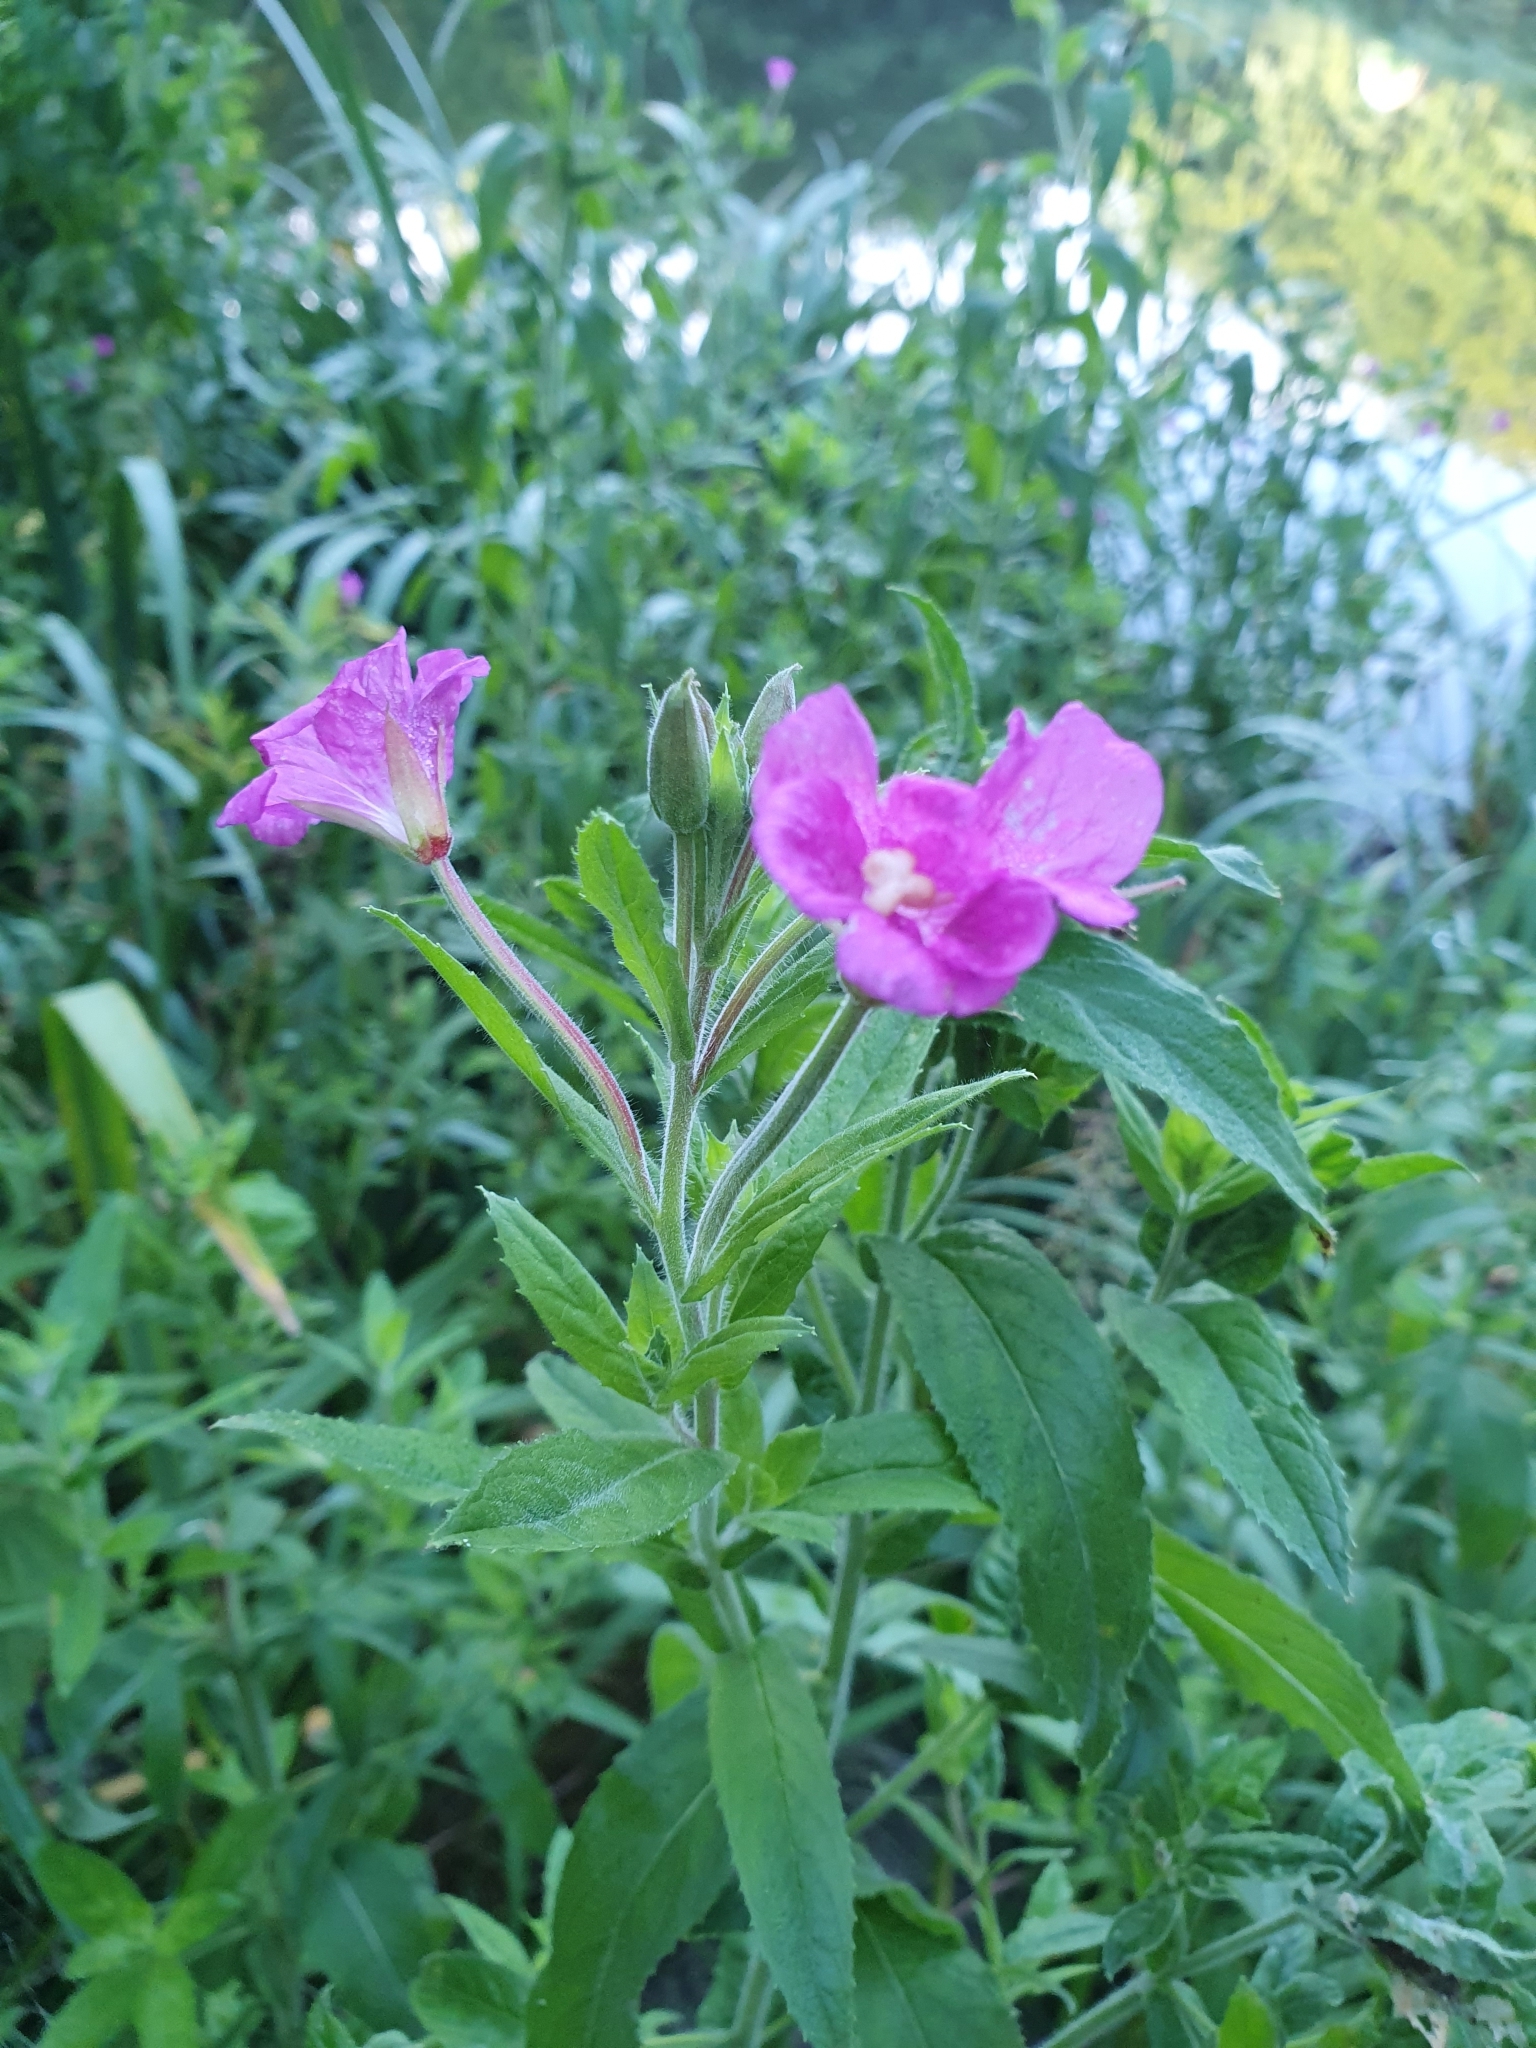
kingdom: Plantae
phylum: Tracheophyta
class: Magnoliopsida
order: Myrtales
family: Onagraceae
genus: Epilobium
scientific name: Epilobium hirsutum
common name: Great willowherb
